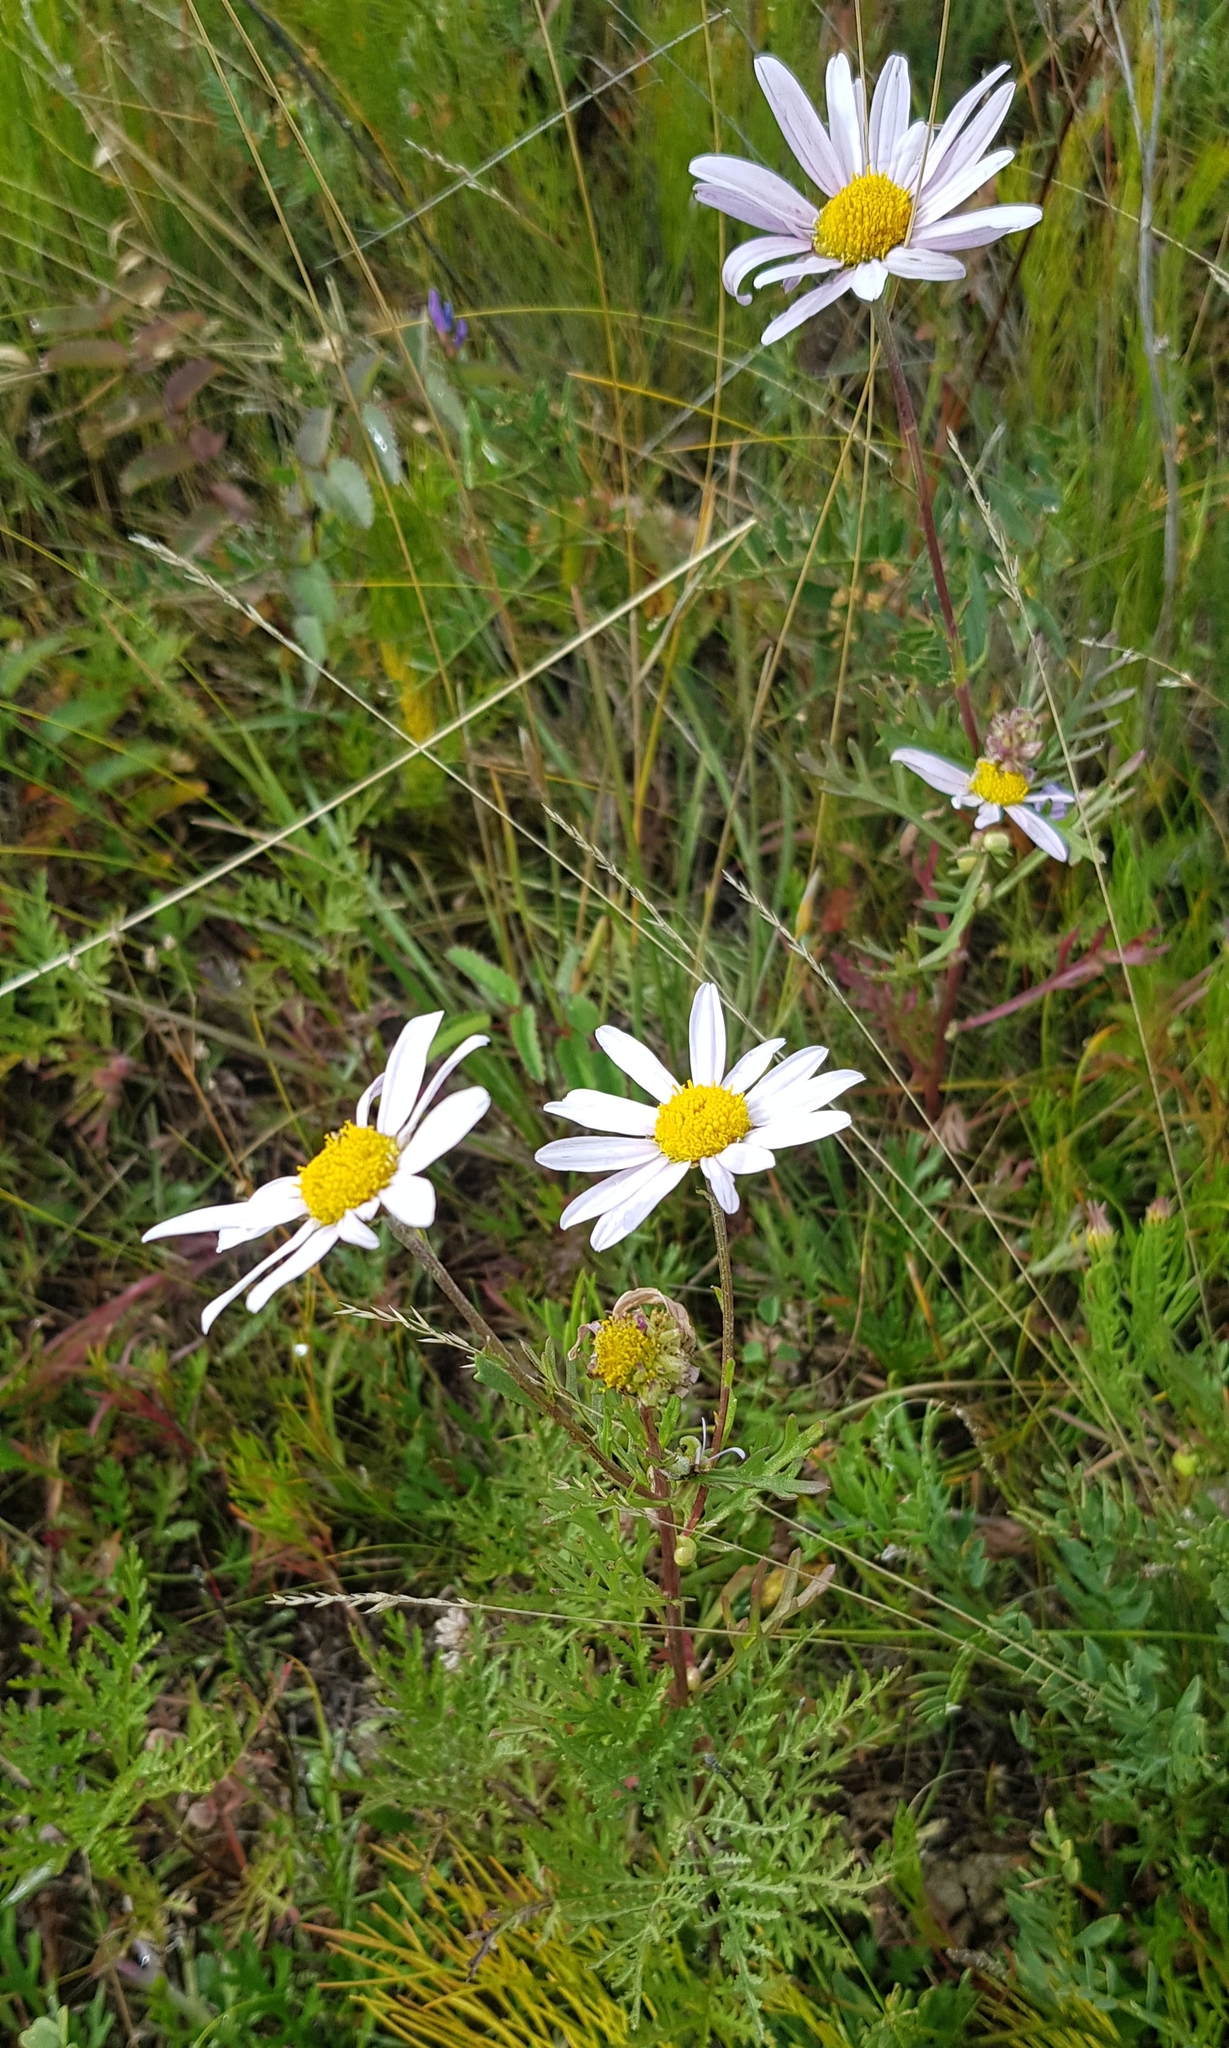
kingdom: Plantae
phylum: Tracheophyta
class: Magnoliopsida
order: Asterales
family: Asteraceae
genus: Chrysanthemum
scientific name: Chrysanthemum zawadzkii
